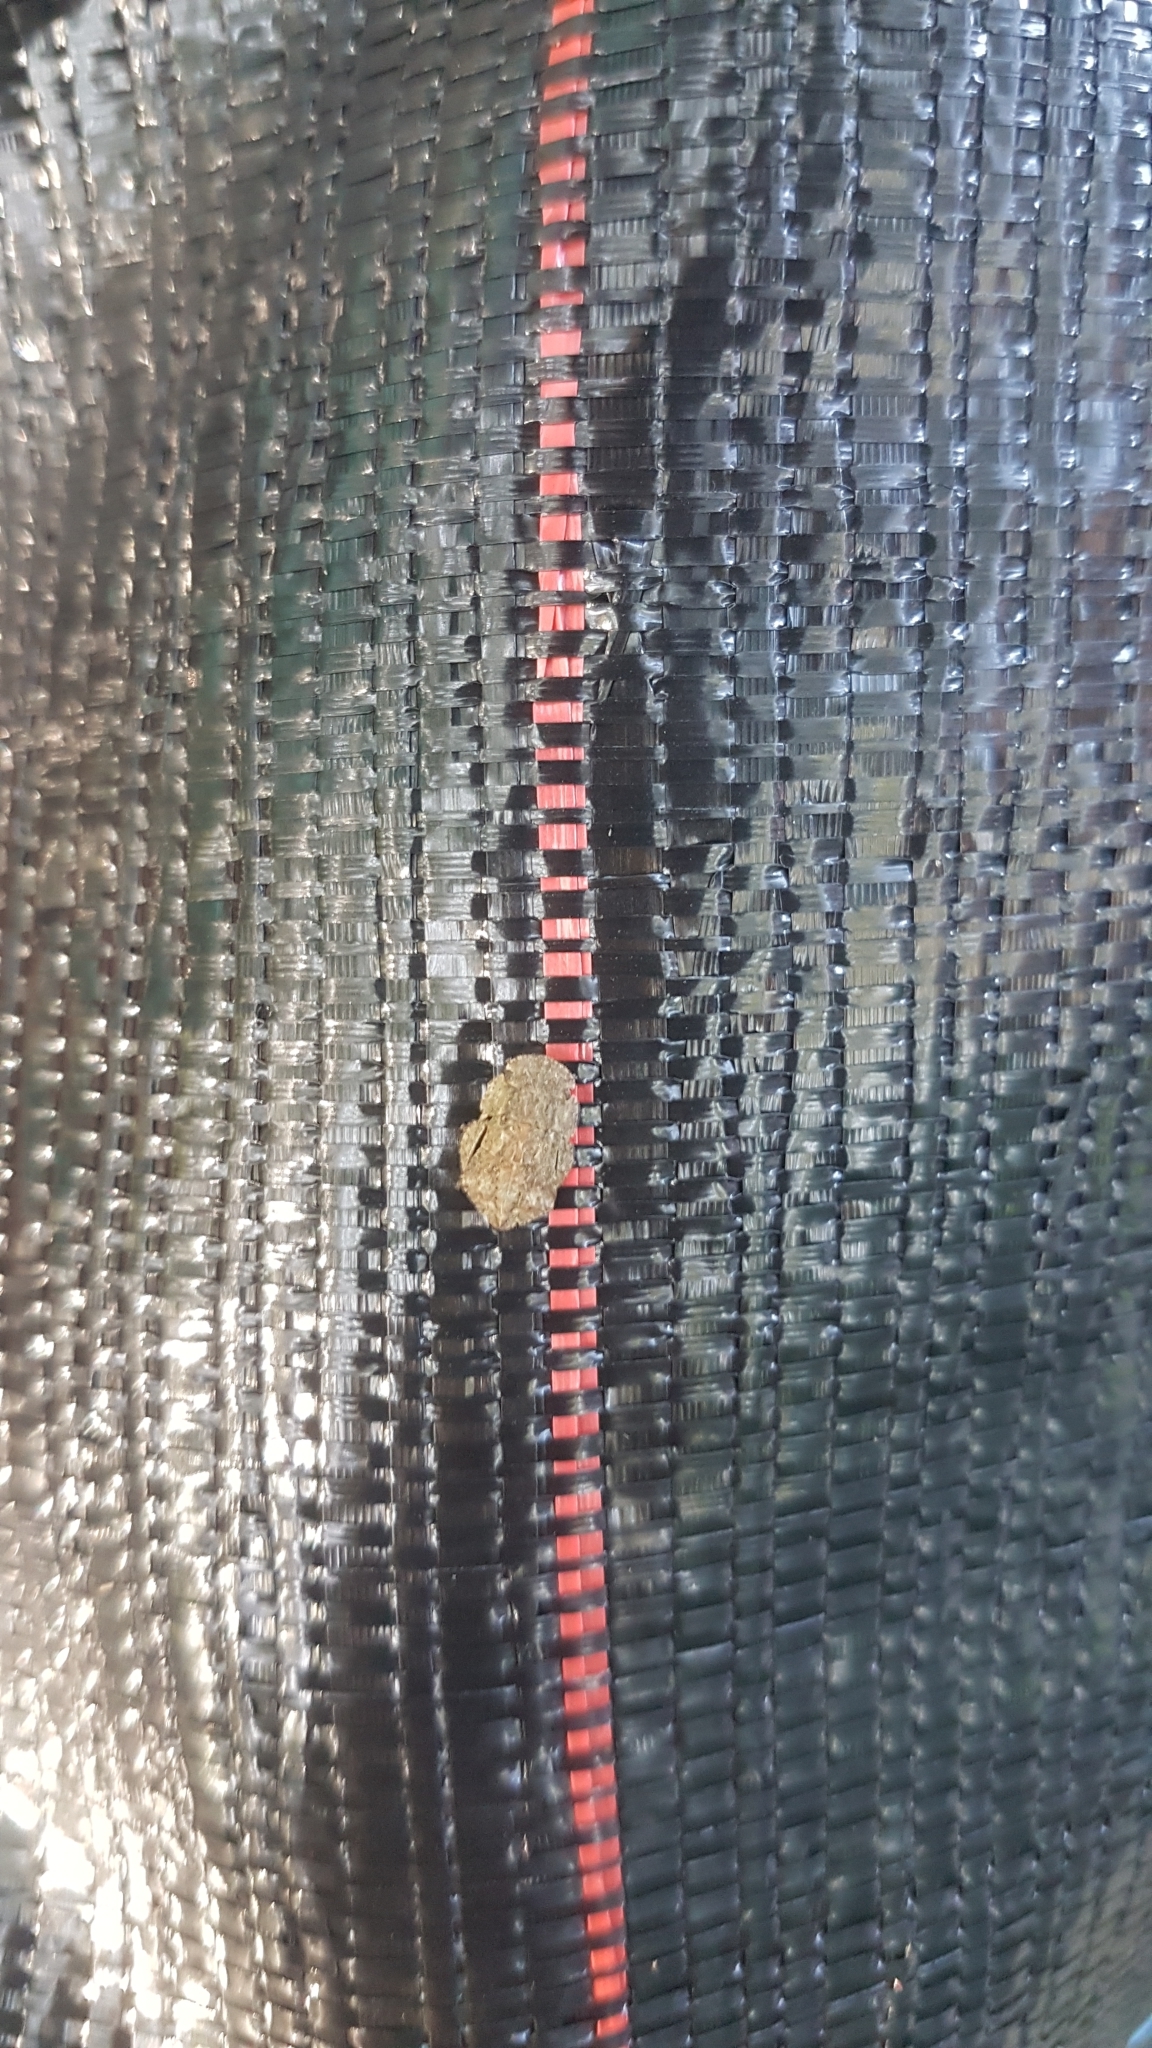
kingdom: Animalia
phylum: Arthropoda
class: Insecta
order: Hemiptera
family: Cicadellidae
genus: Ledra
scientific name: Ledra aurita
